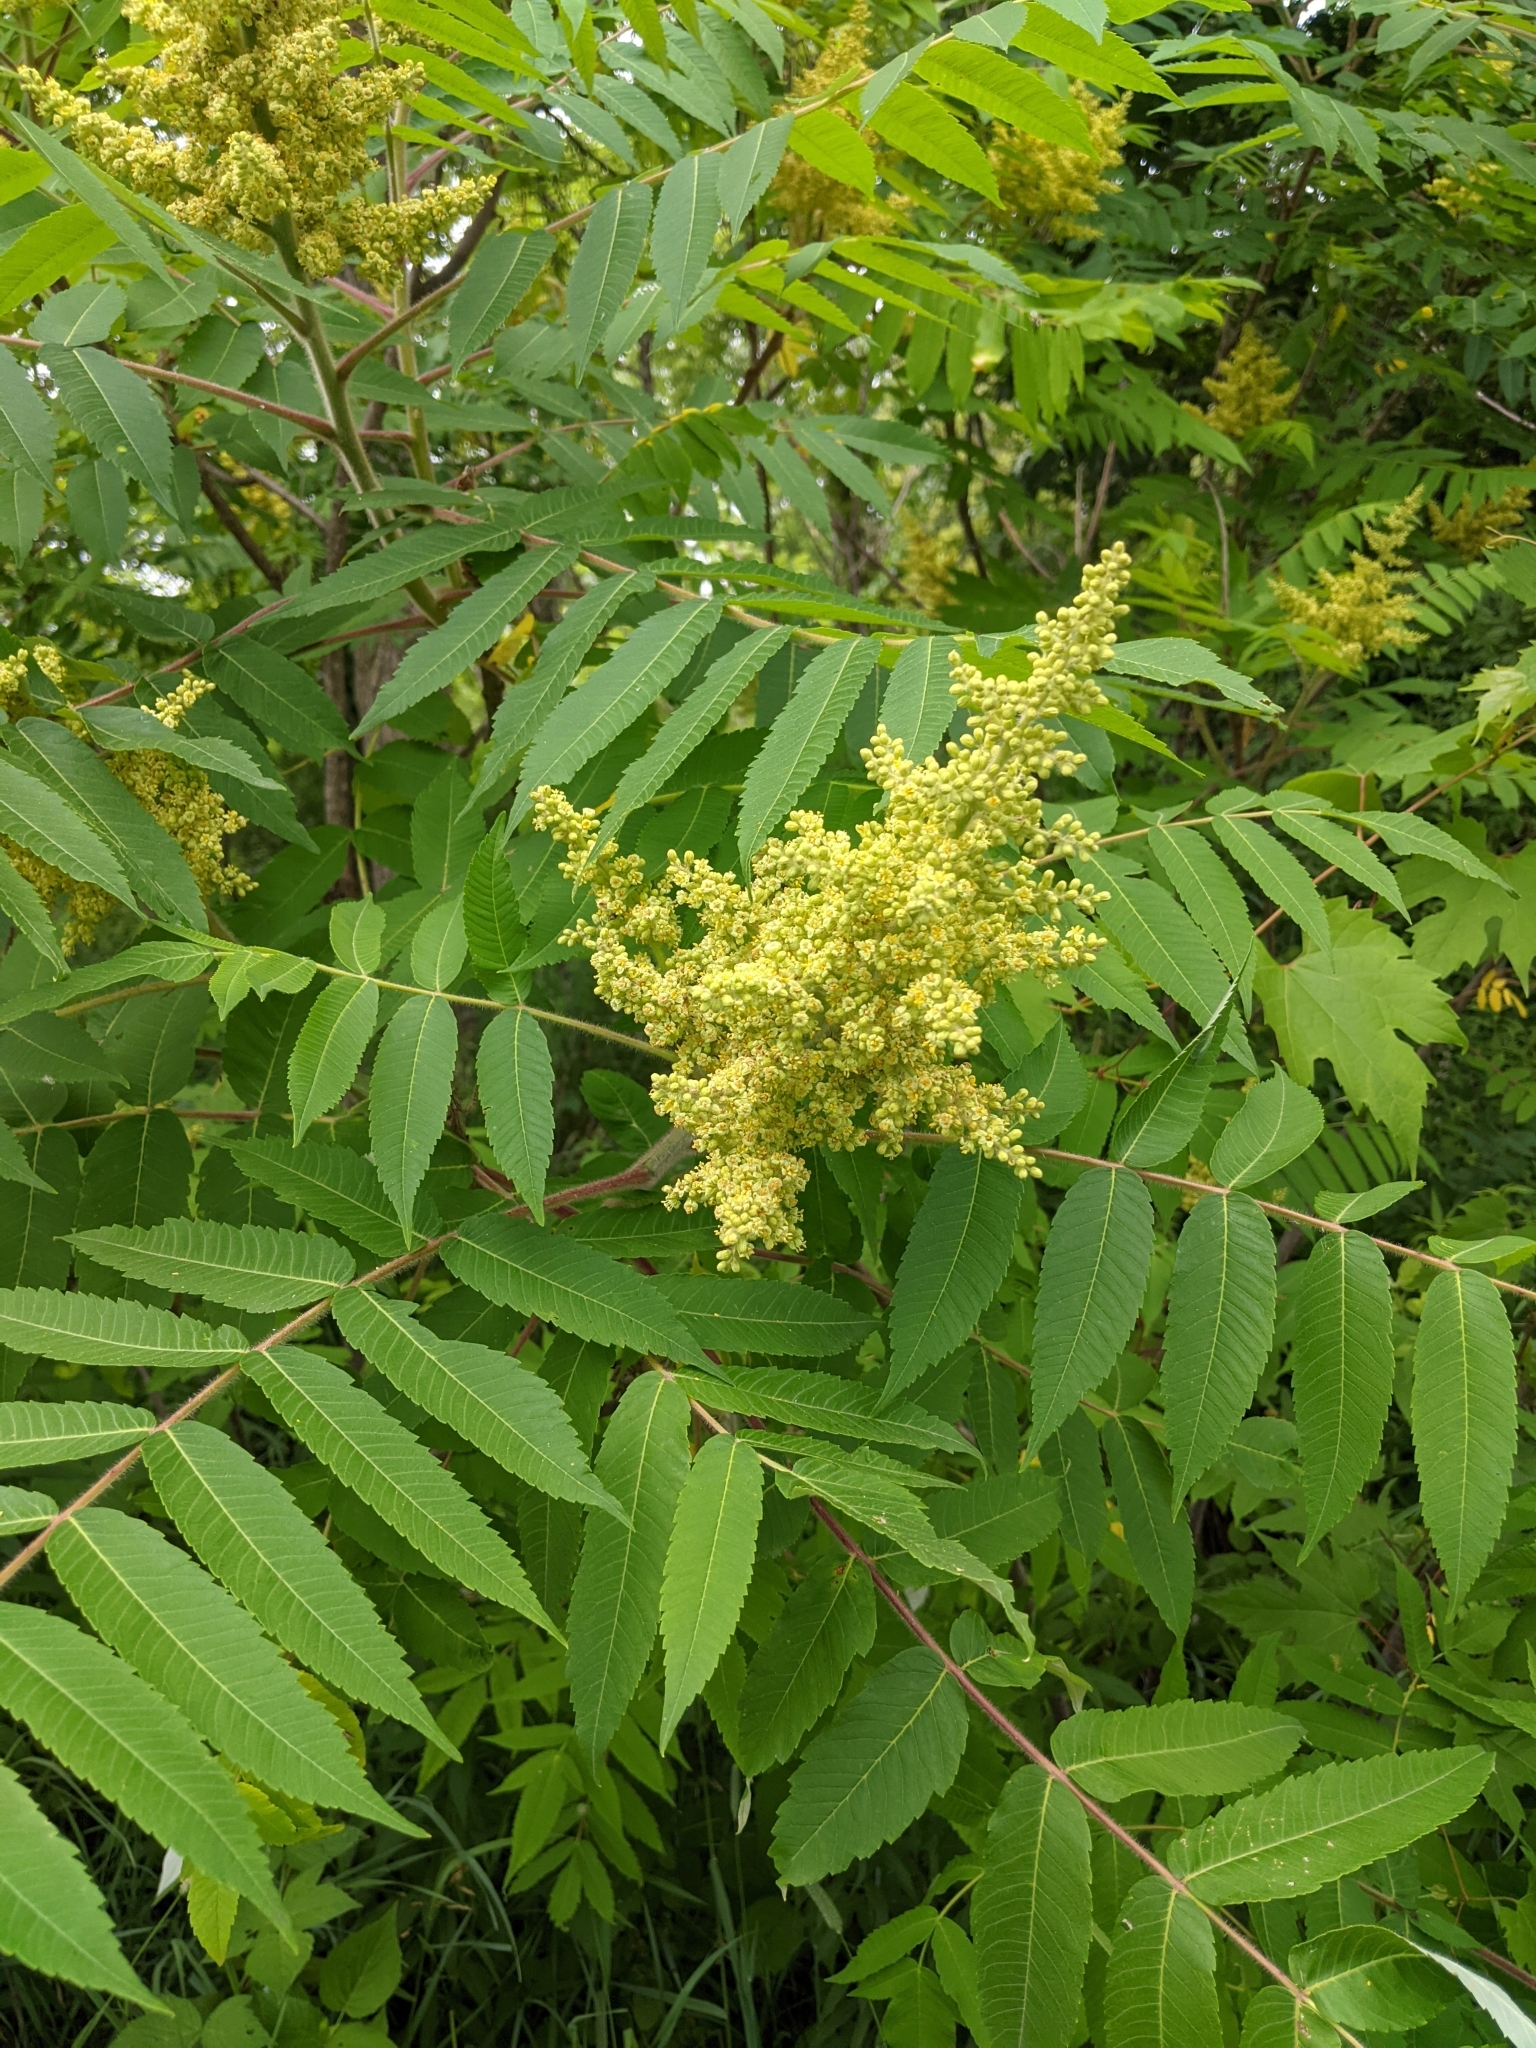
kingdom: Plantae
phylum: Tracheophyta
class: Magnoliopsida
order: Sapindales
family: Anacardiaceae
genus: Rhus
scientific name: Rhus typhina
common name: Staghorn sumac
